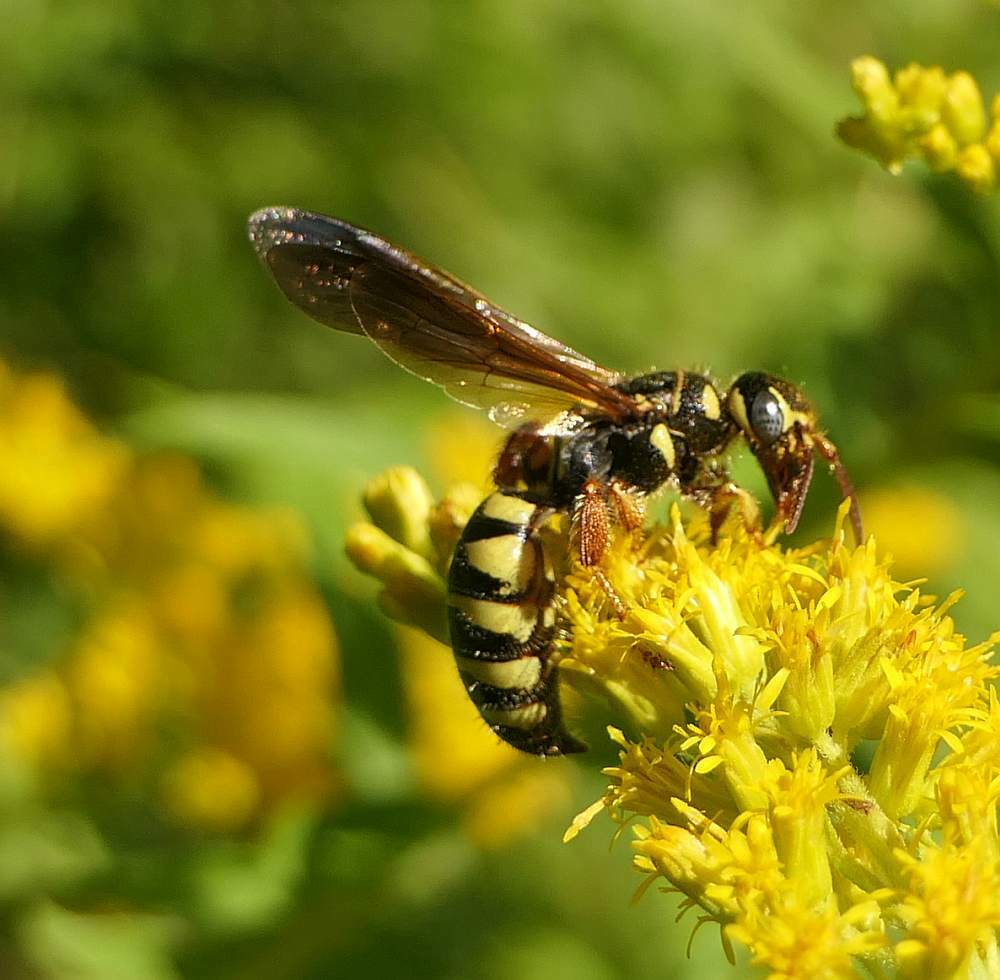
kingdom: Animalia
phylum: Arthropoda
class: Insecta
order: Hymenoptera
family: Tiphiidae
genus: Myzinum
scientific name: Myzinum quinquecinctum
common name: Five-banded thynnid wasp
